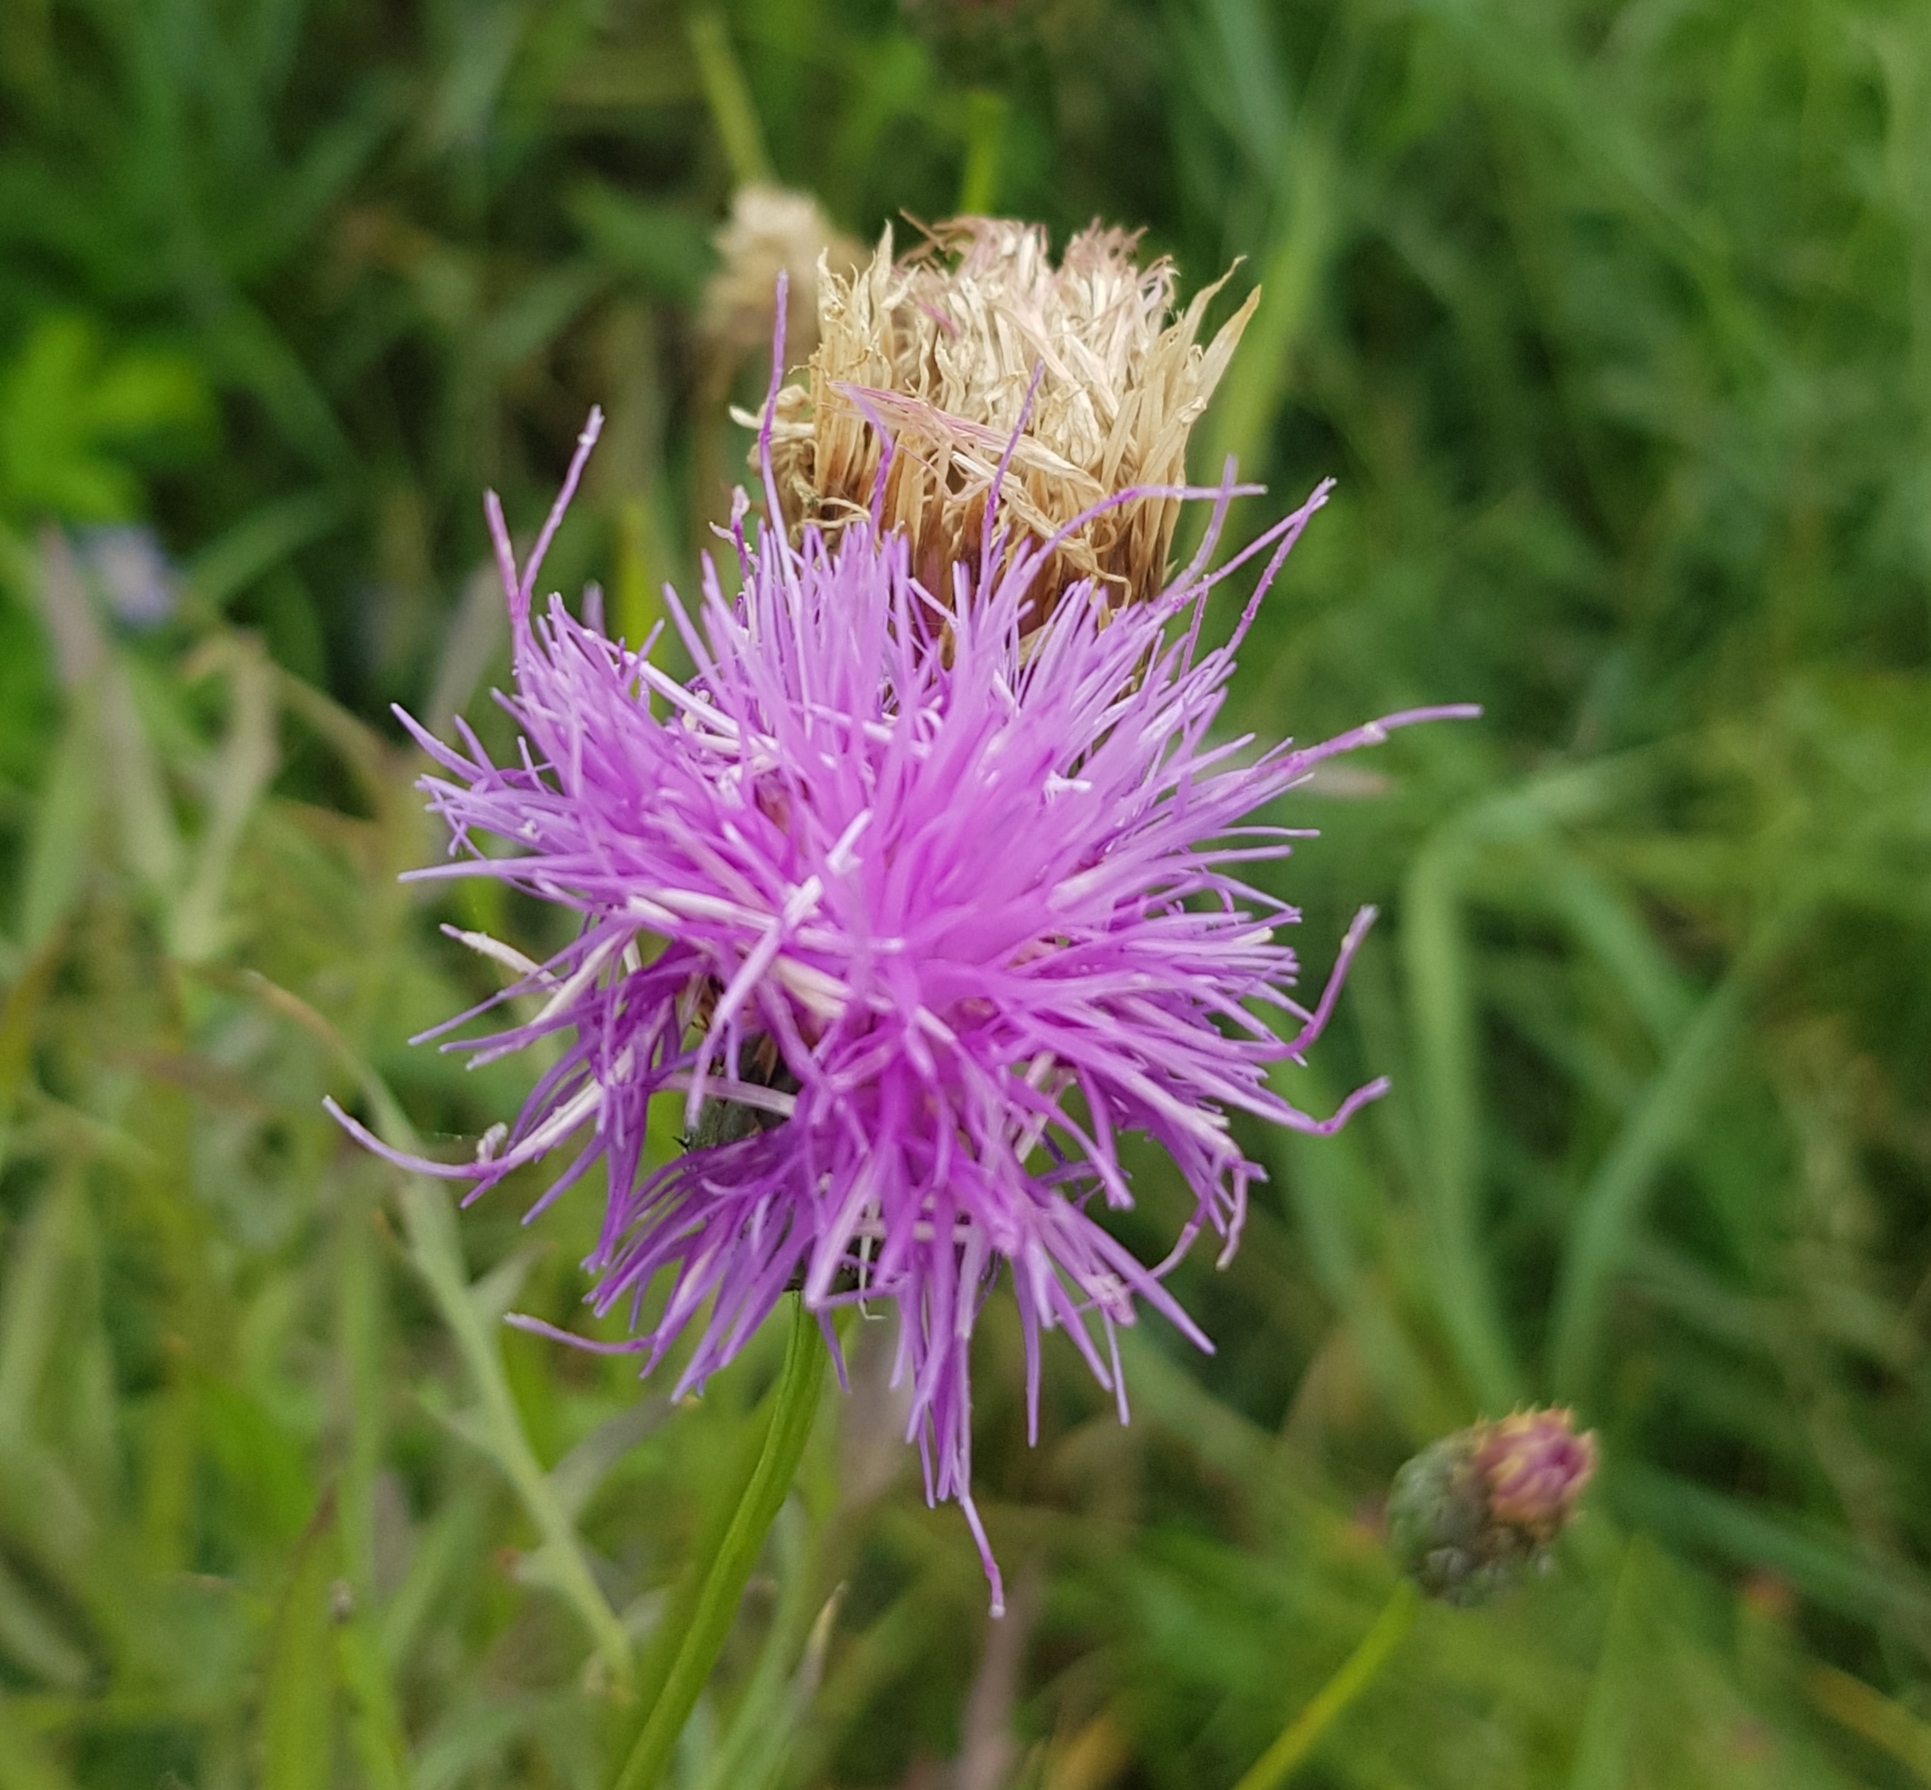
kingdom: Plantae
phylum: Tracheophyta
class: Magnoliopsida
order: Asterales
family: Asteraceae
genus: Klasea
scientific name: Klasea cardunculus
